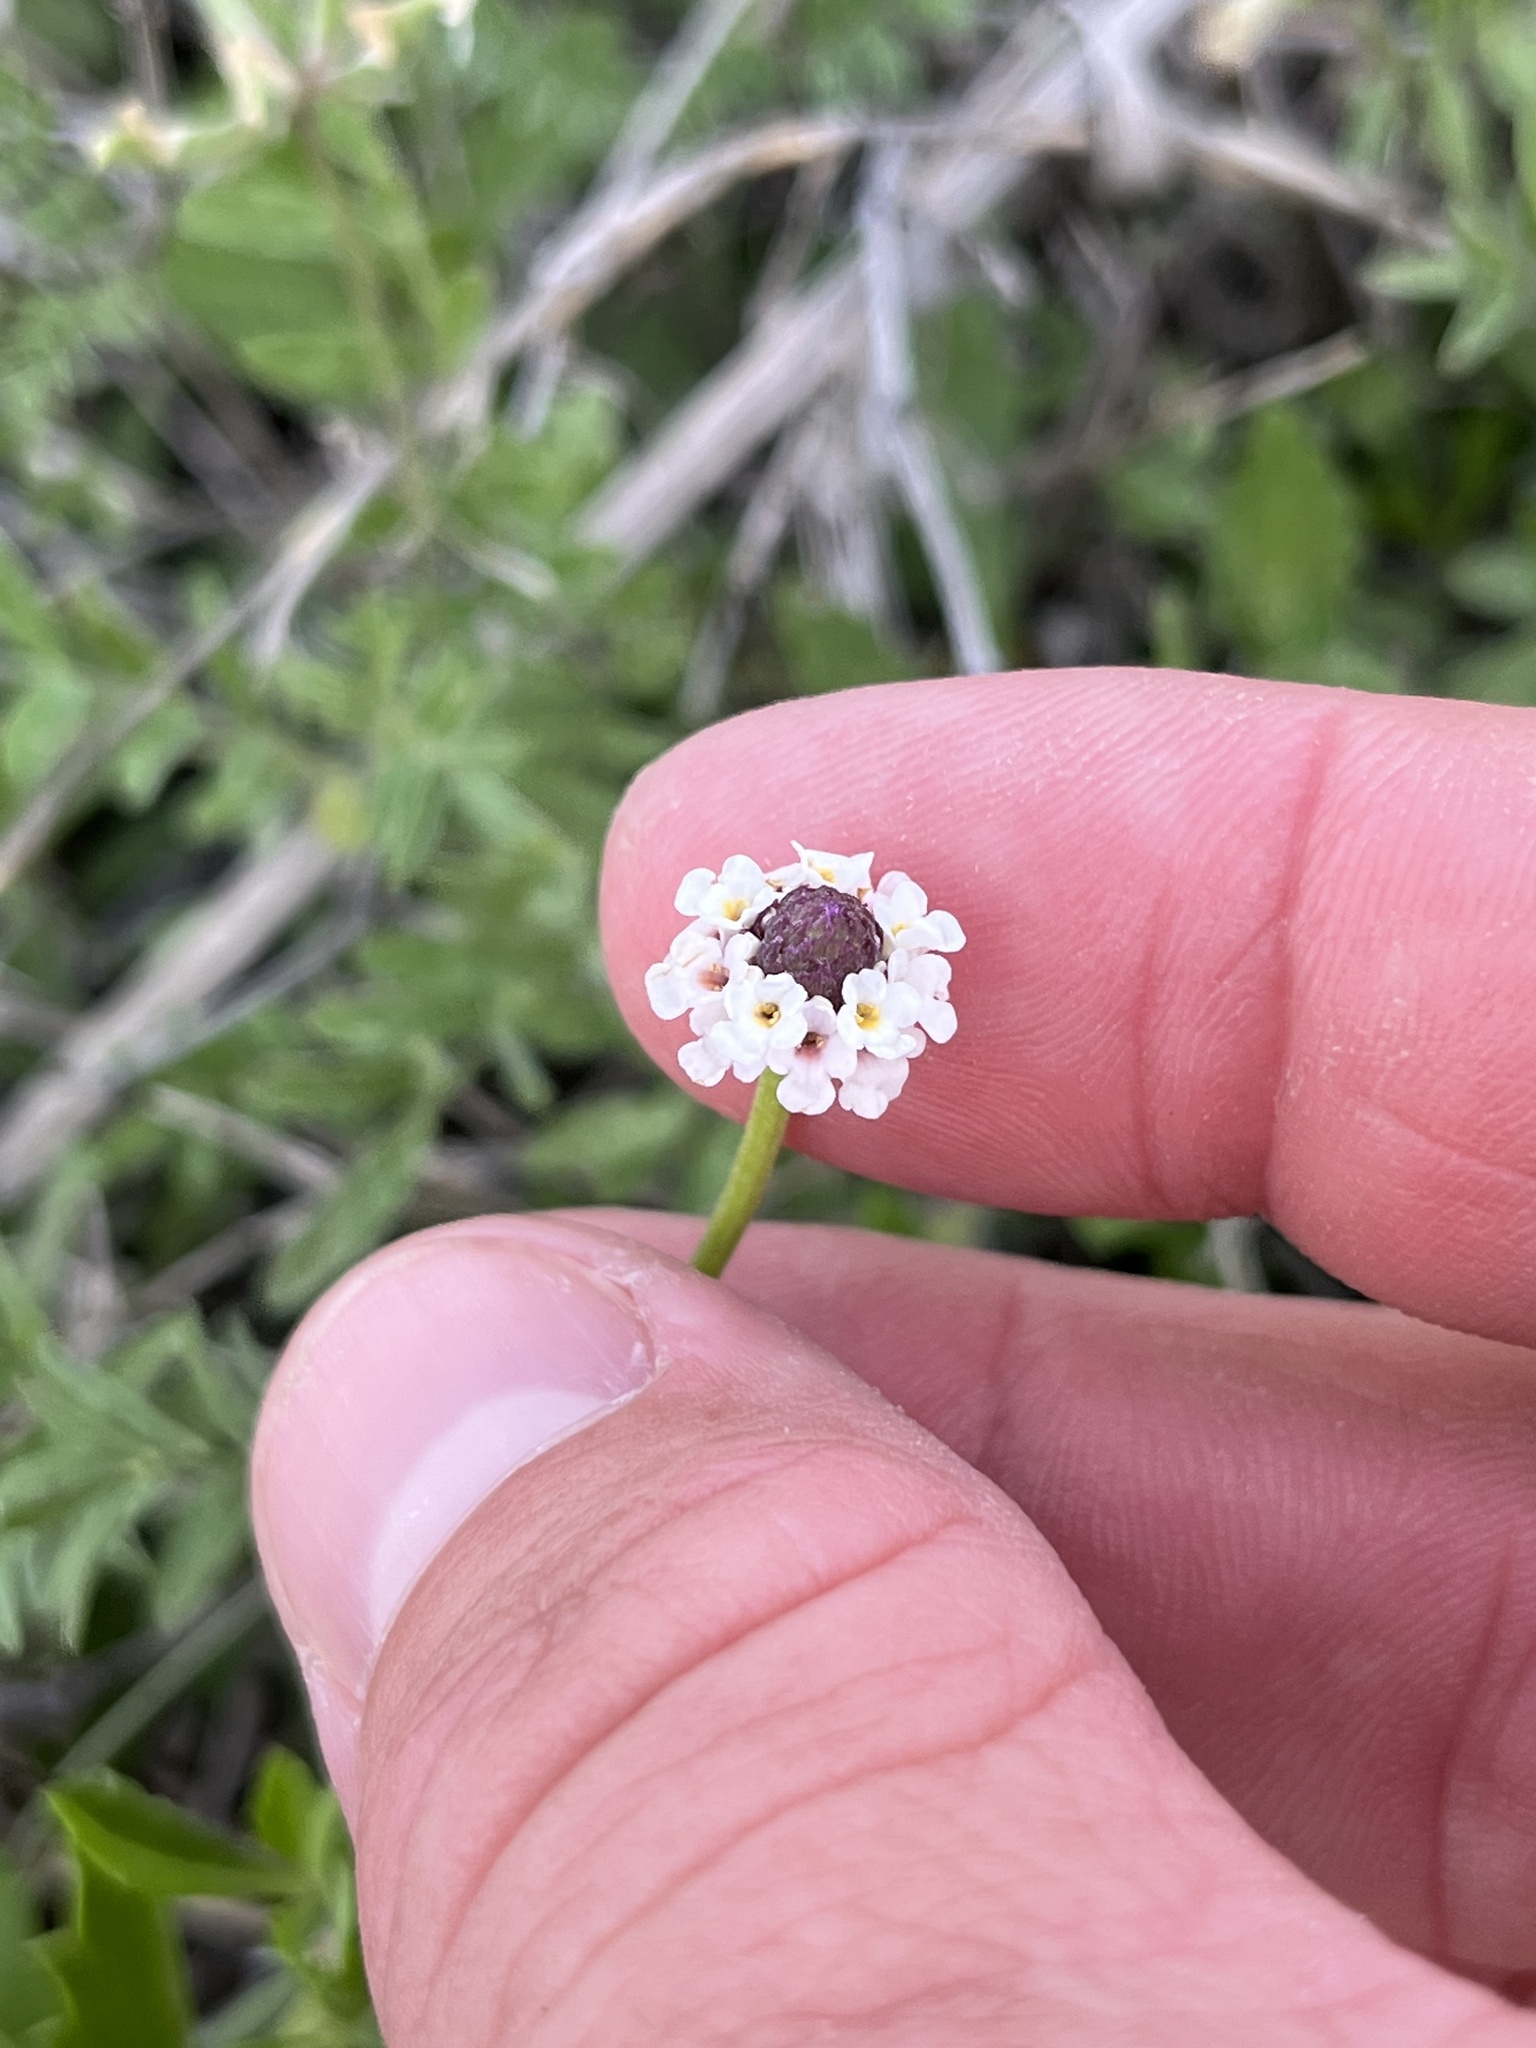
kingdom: Plantae
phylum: Tracheophyta
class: Magnoliopsida
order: Lamiales
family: Verbenaceae
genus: Phyla
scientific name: Phyla nodiflora
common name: Frogfruit
